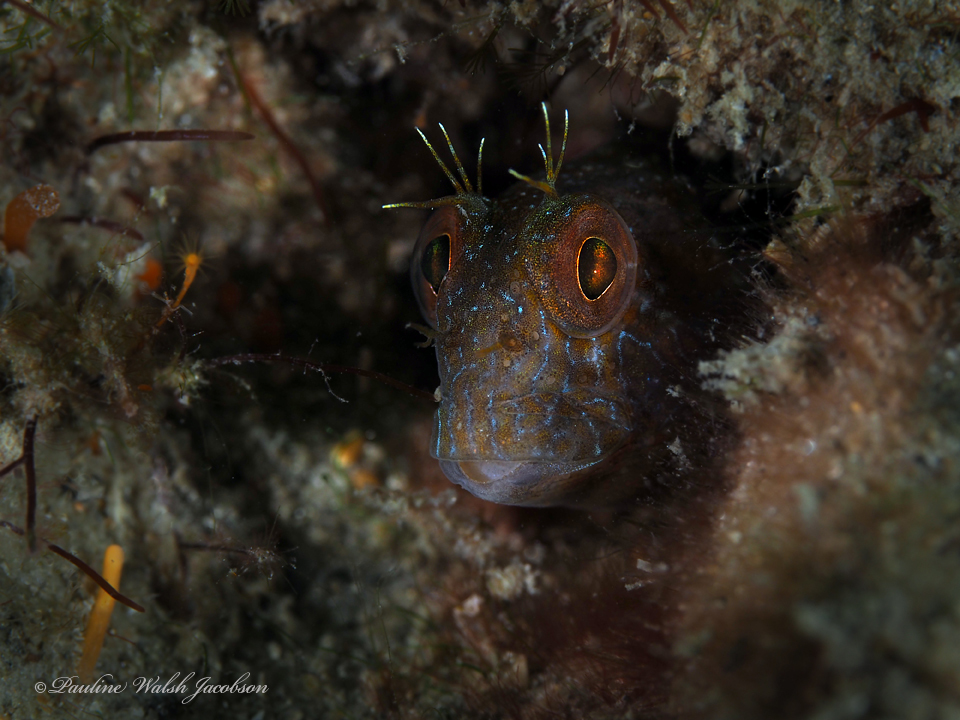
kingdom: Animalia
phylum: Chordata
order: Perciformes
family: Blenniidae
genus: Parablennius
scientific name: Parablennius marmoreus
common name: Seaweed blenny
